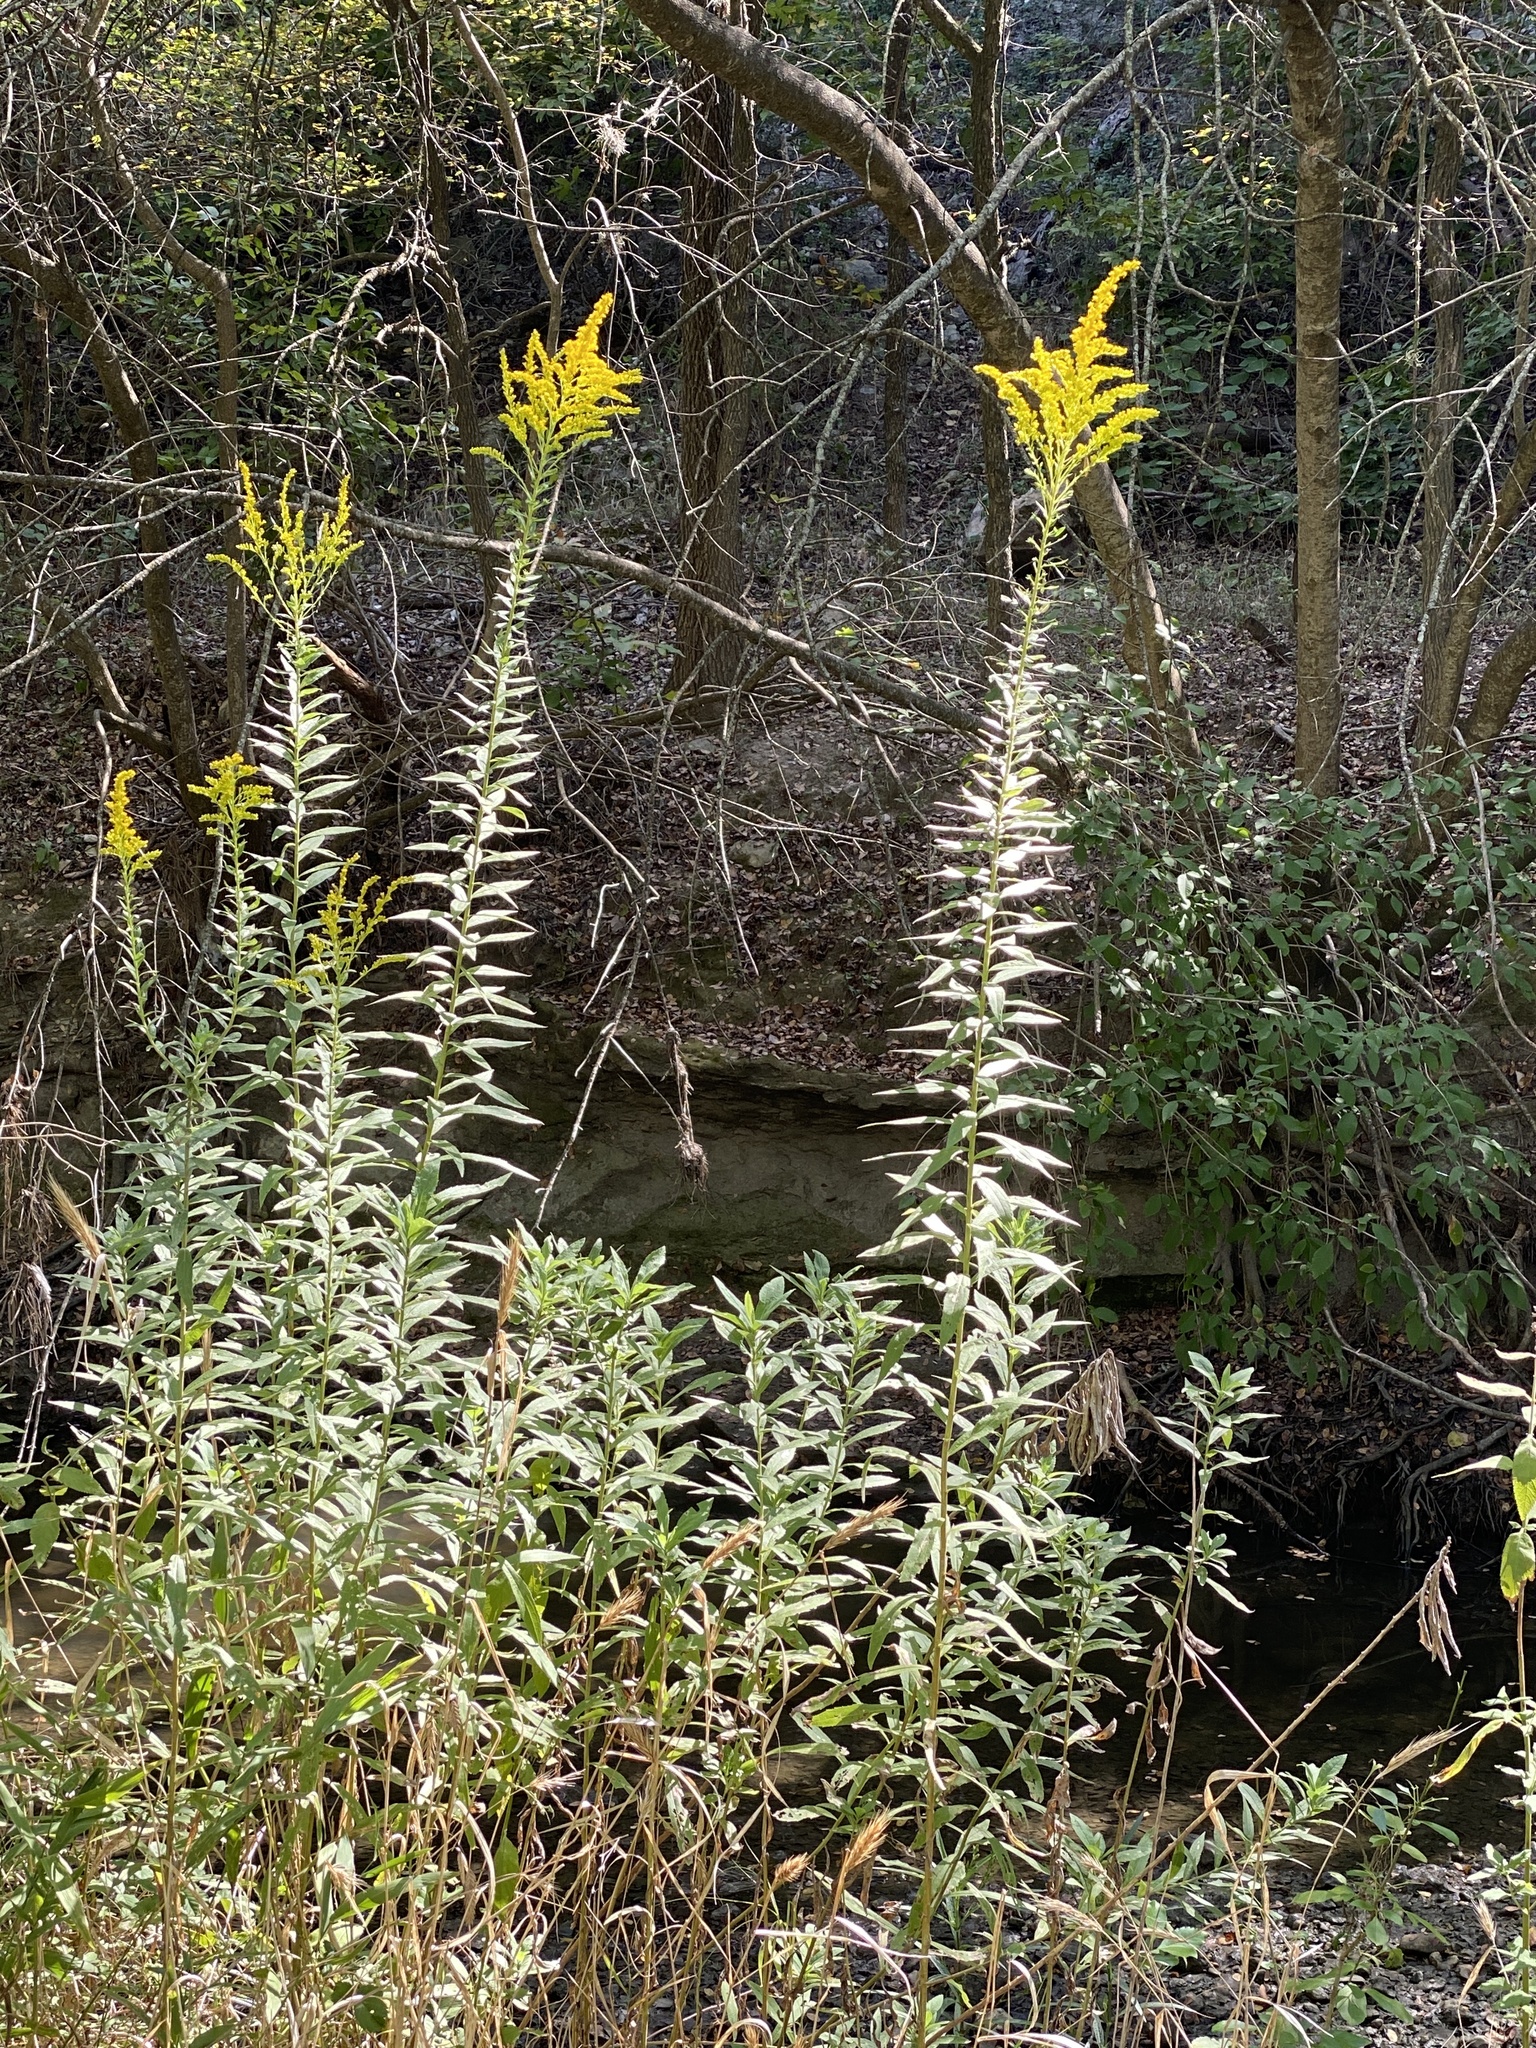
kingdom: Plantae
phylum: Tracheophyta
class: Magnoliopsida
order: Asterales
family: Asteraceae
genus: Solidago
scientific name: Solidago altissima
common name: Late goldenrod
